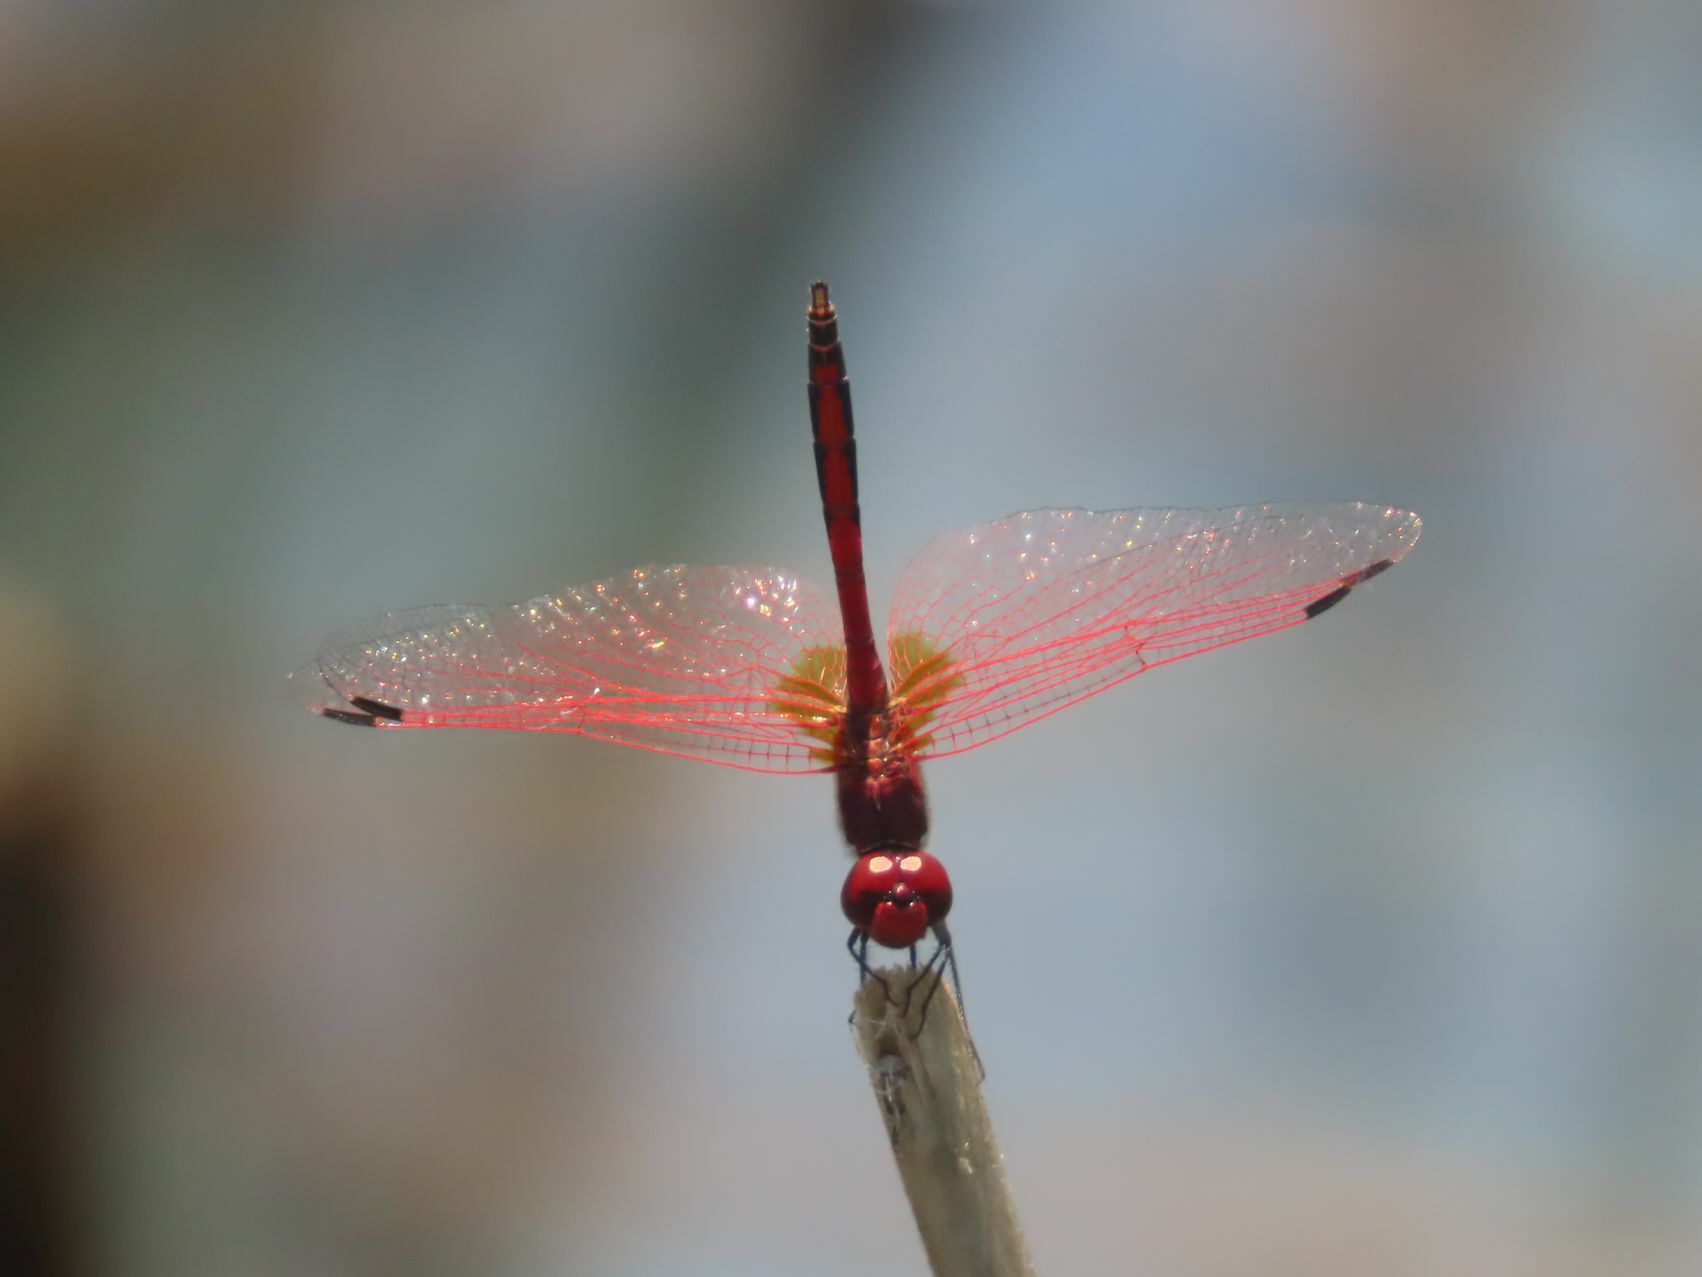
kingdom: Animalia
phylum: Arthropoda
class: Insecta
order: Odonata
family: Libellulidae
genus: Trithemis
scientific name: Trithemis arteriosa
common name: Red-veined dropwing
